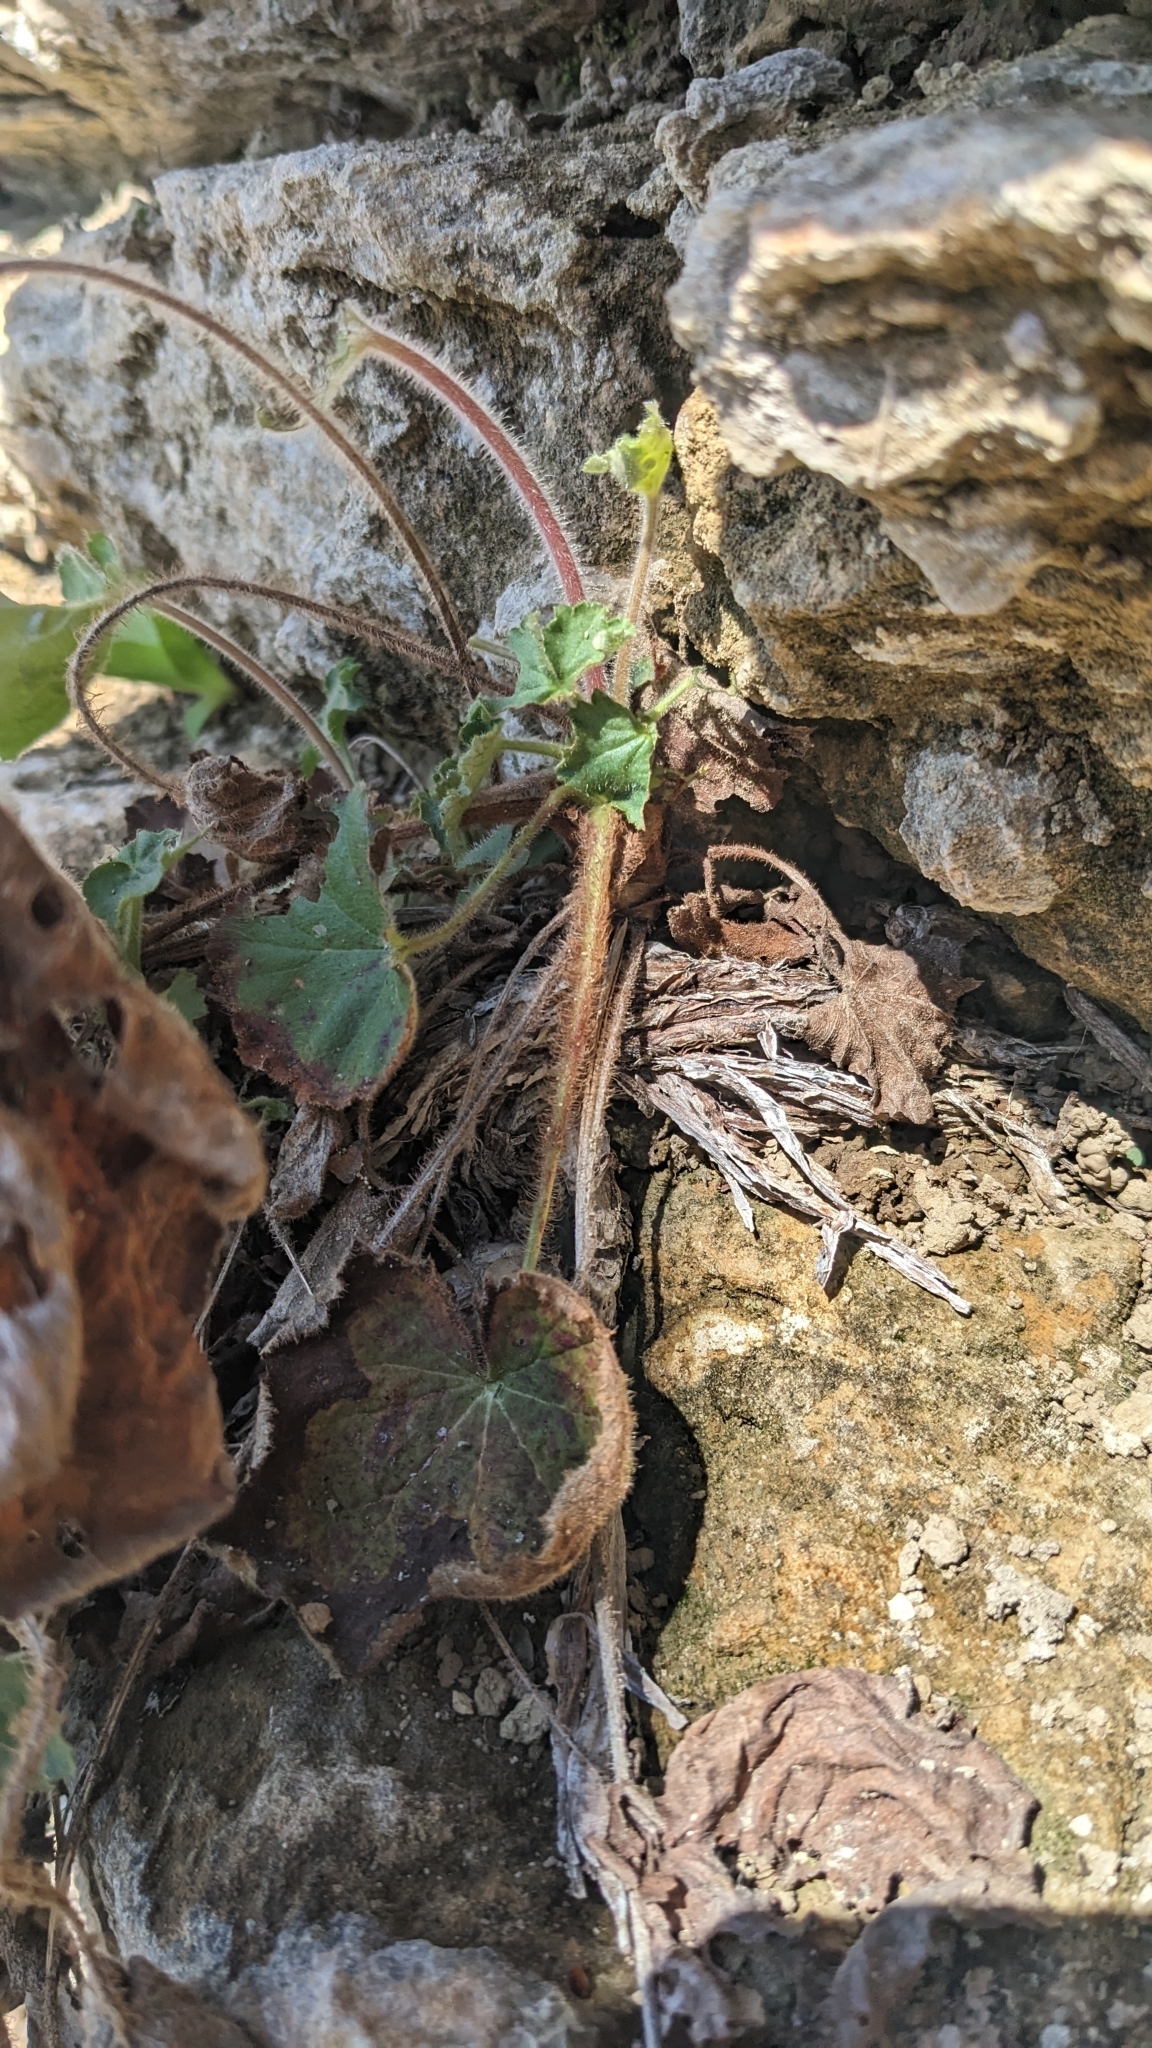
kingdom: Plantae
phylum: Tracheophyta
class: Magnoliopsida
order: Saxifragales
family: Saxifragaceae
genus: Heuchera
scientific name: Heuchera villosa
